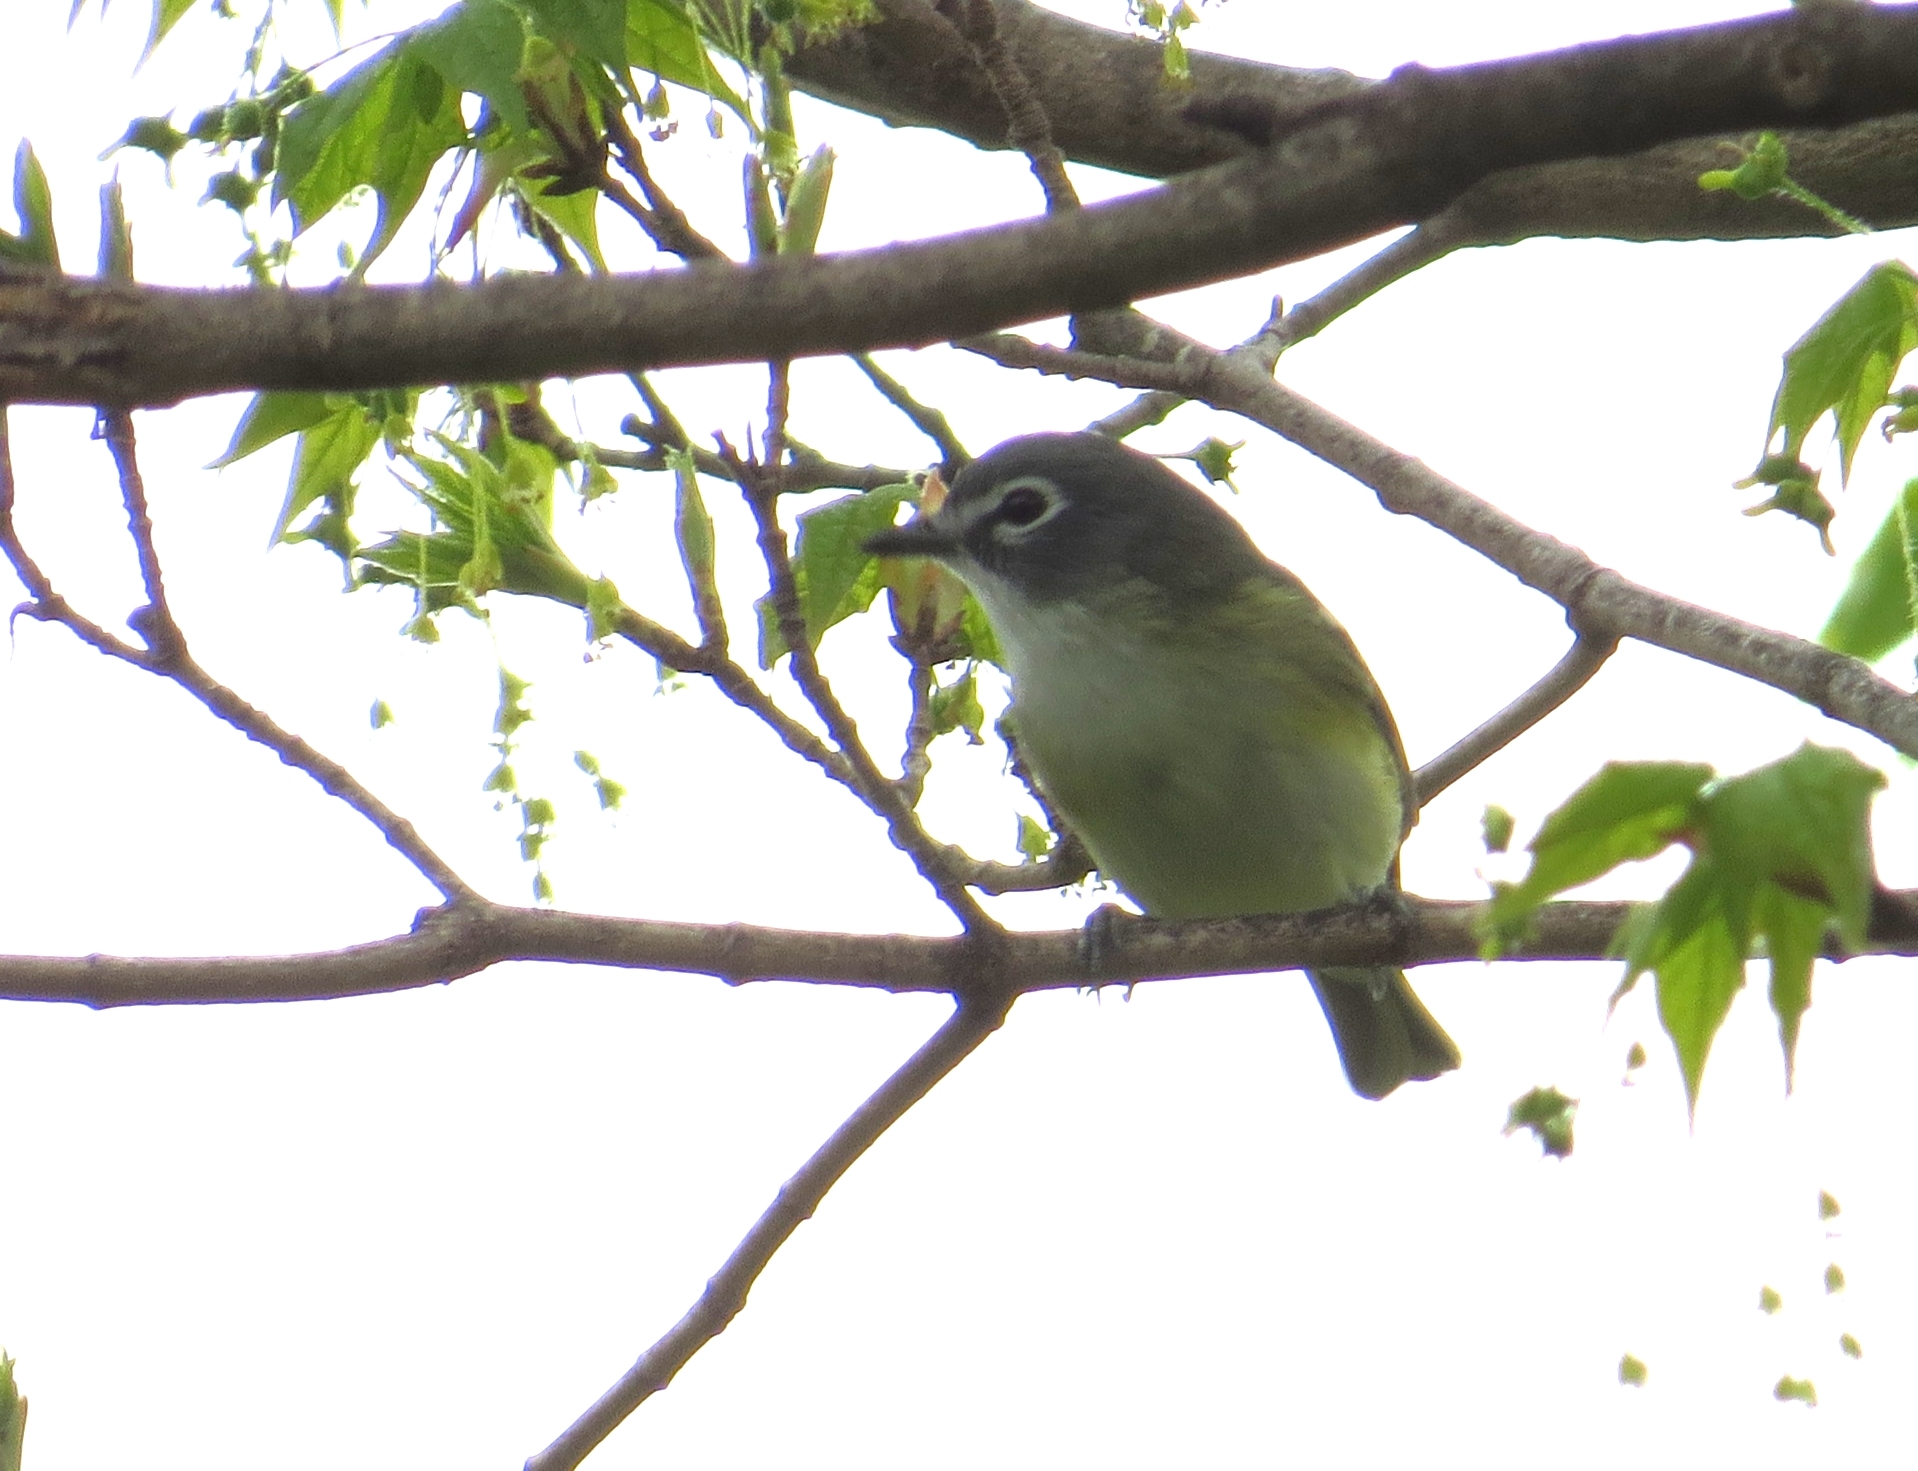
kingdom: Animalia
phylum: Chordata
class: Aves
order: Passeriformes
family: Vireonidae
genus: Vireo
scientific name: Vireo solitarius
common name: Blue-headed vireo
